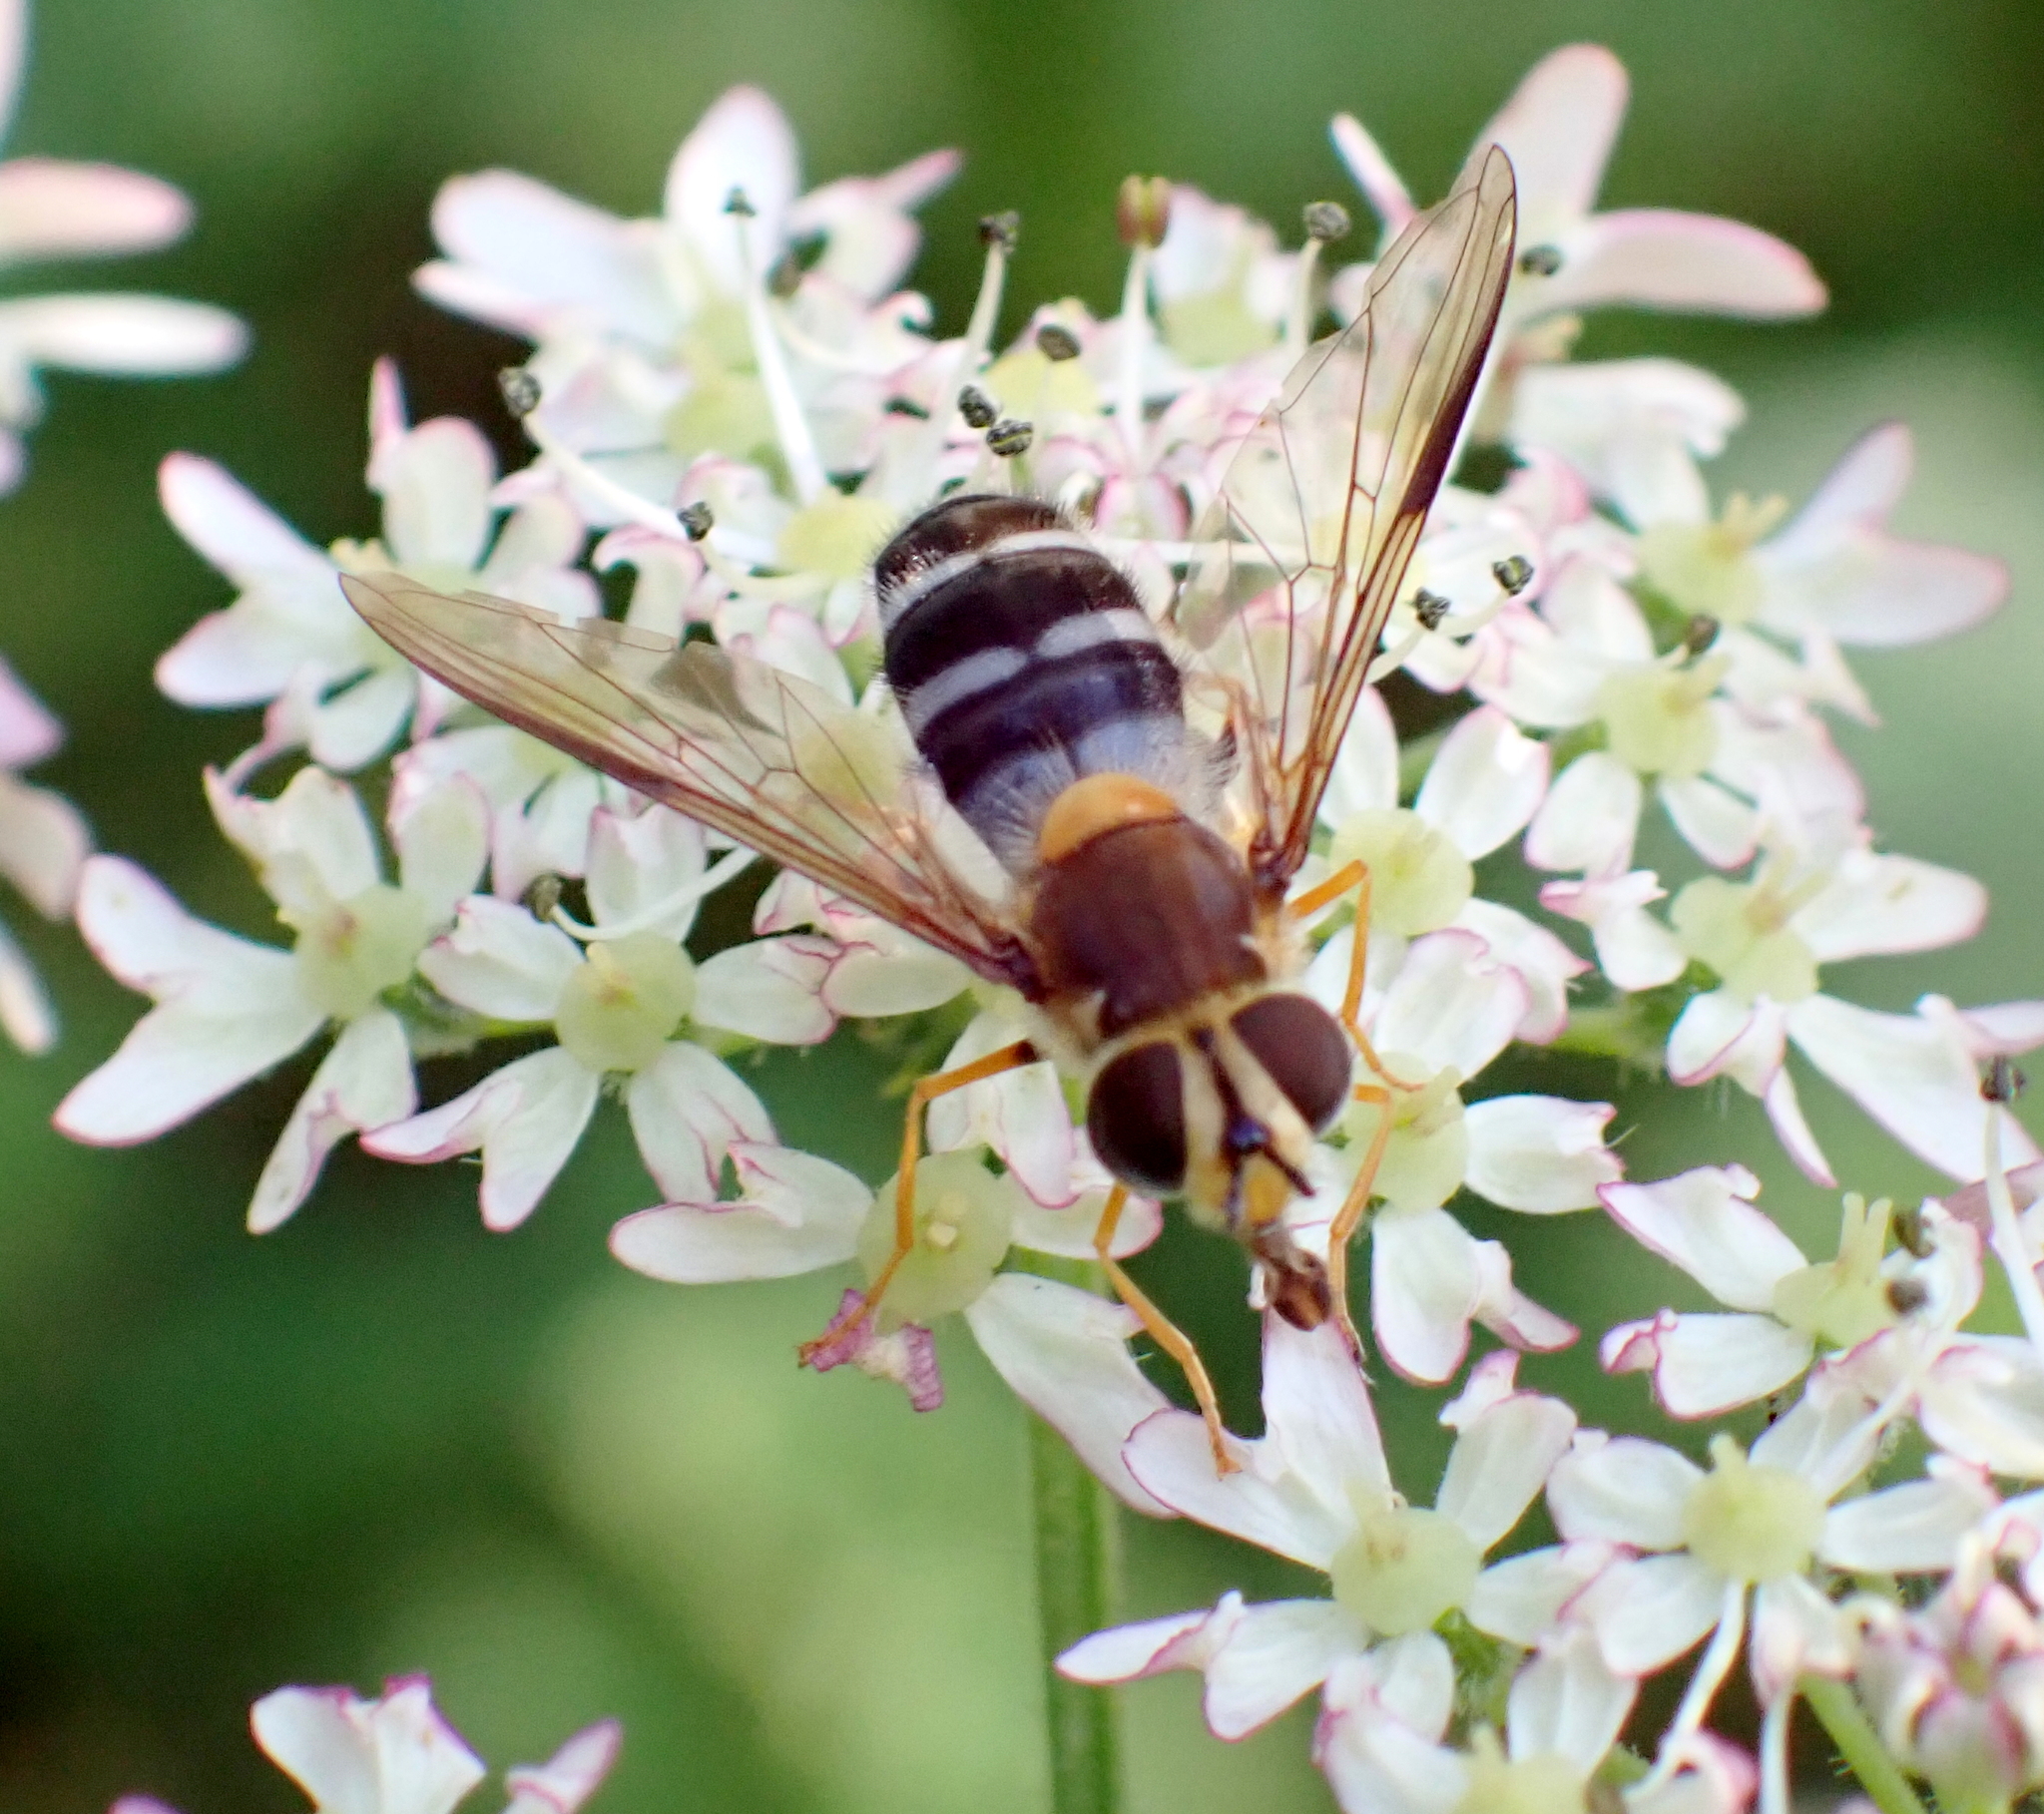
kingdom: Animalia
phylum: Arthropoda
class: Insecta
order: Diptera
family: Syrphidae
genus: Leucozona
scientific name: Leucozona glaucia
